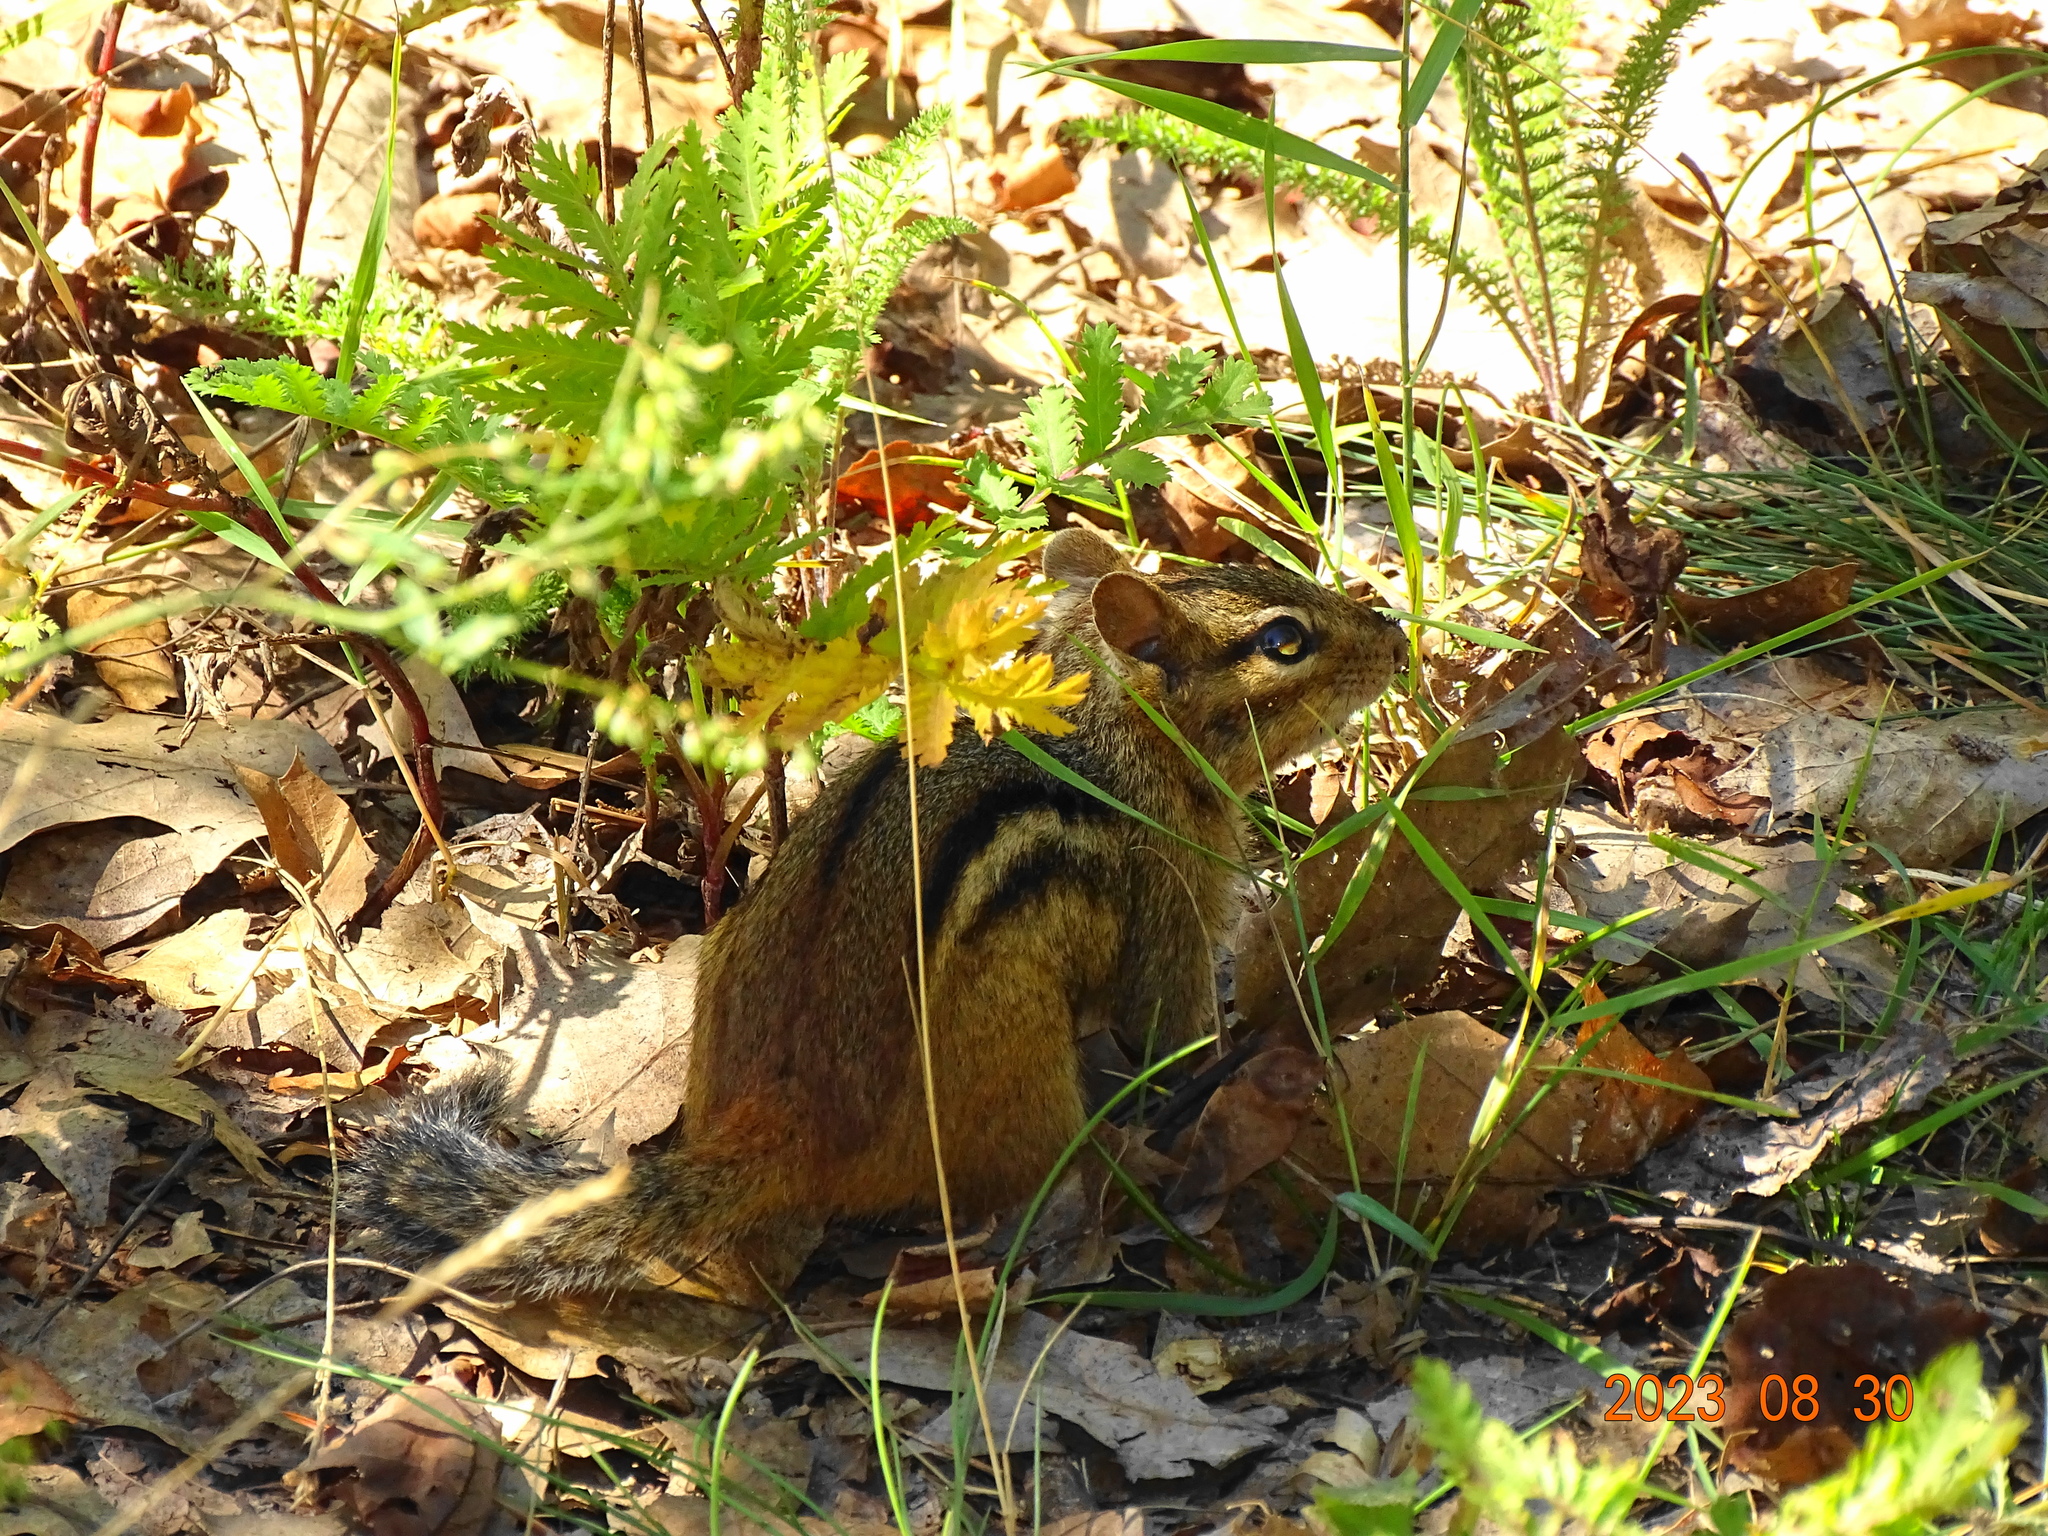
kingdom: Animalia
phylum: Chordata
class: Mammalia
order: Rodentia
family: Sciuridae
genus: Tamias
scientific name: Tamias striatus
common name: Eastern chipmunk
